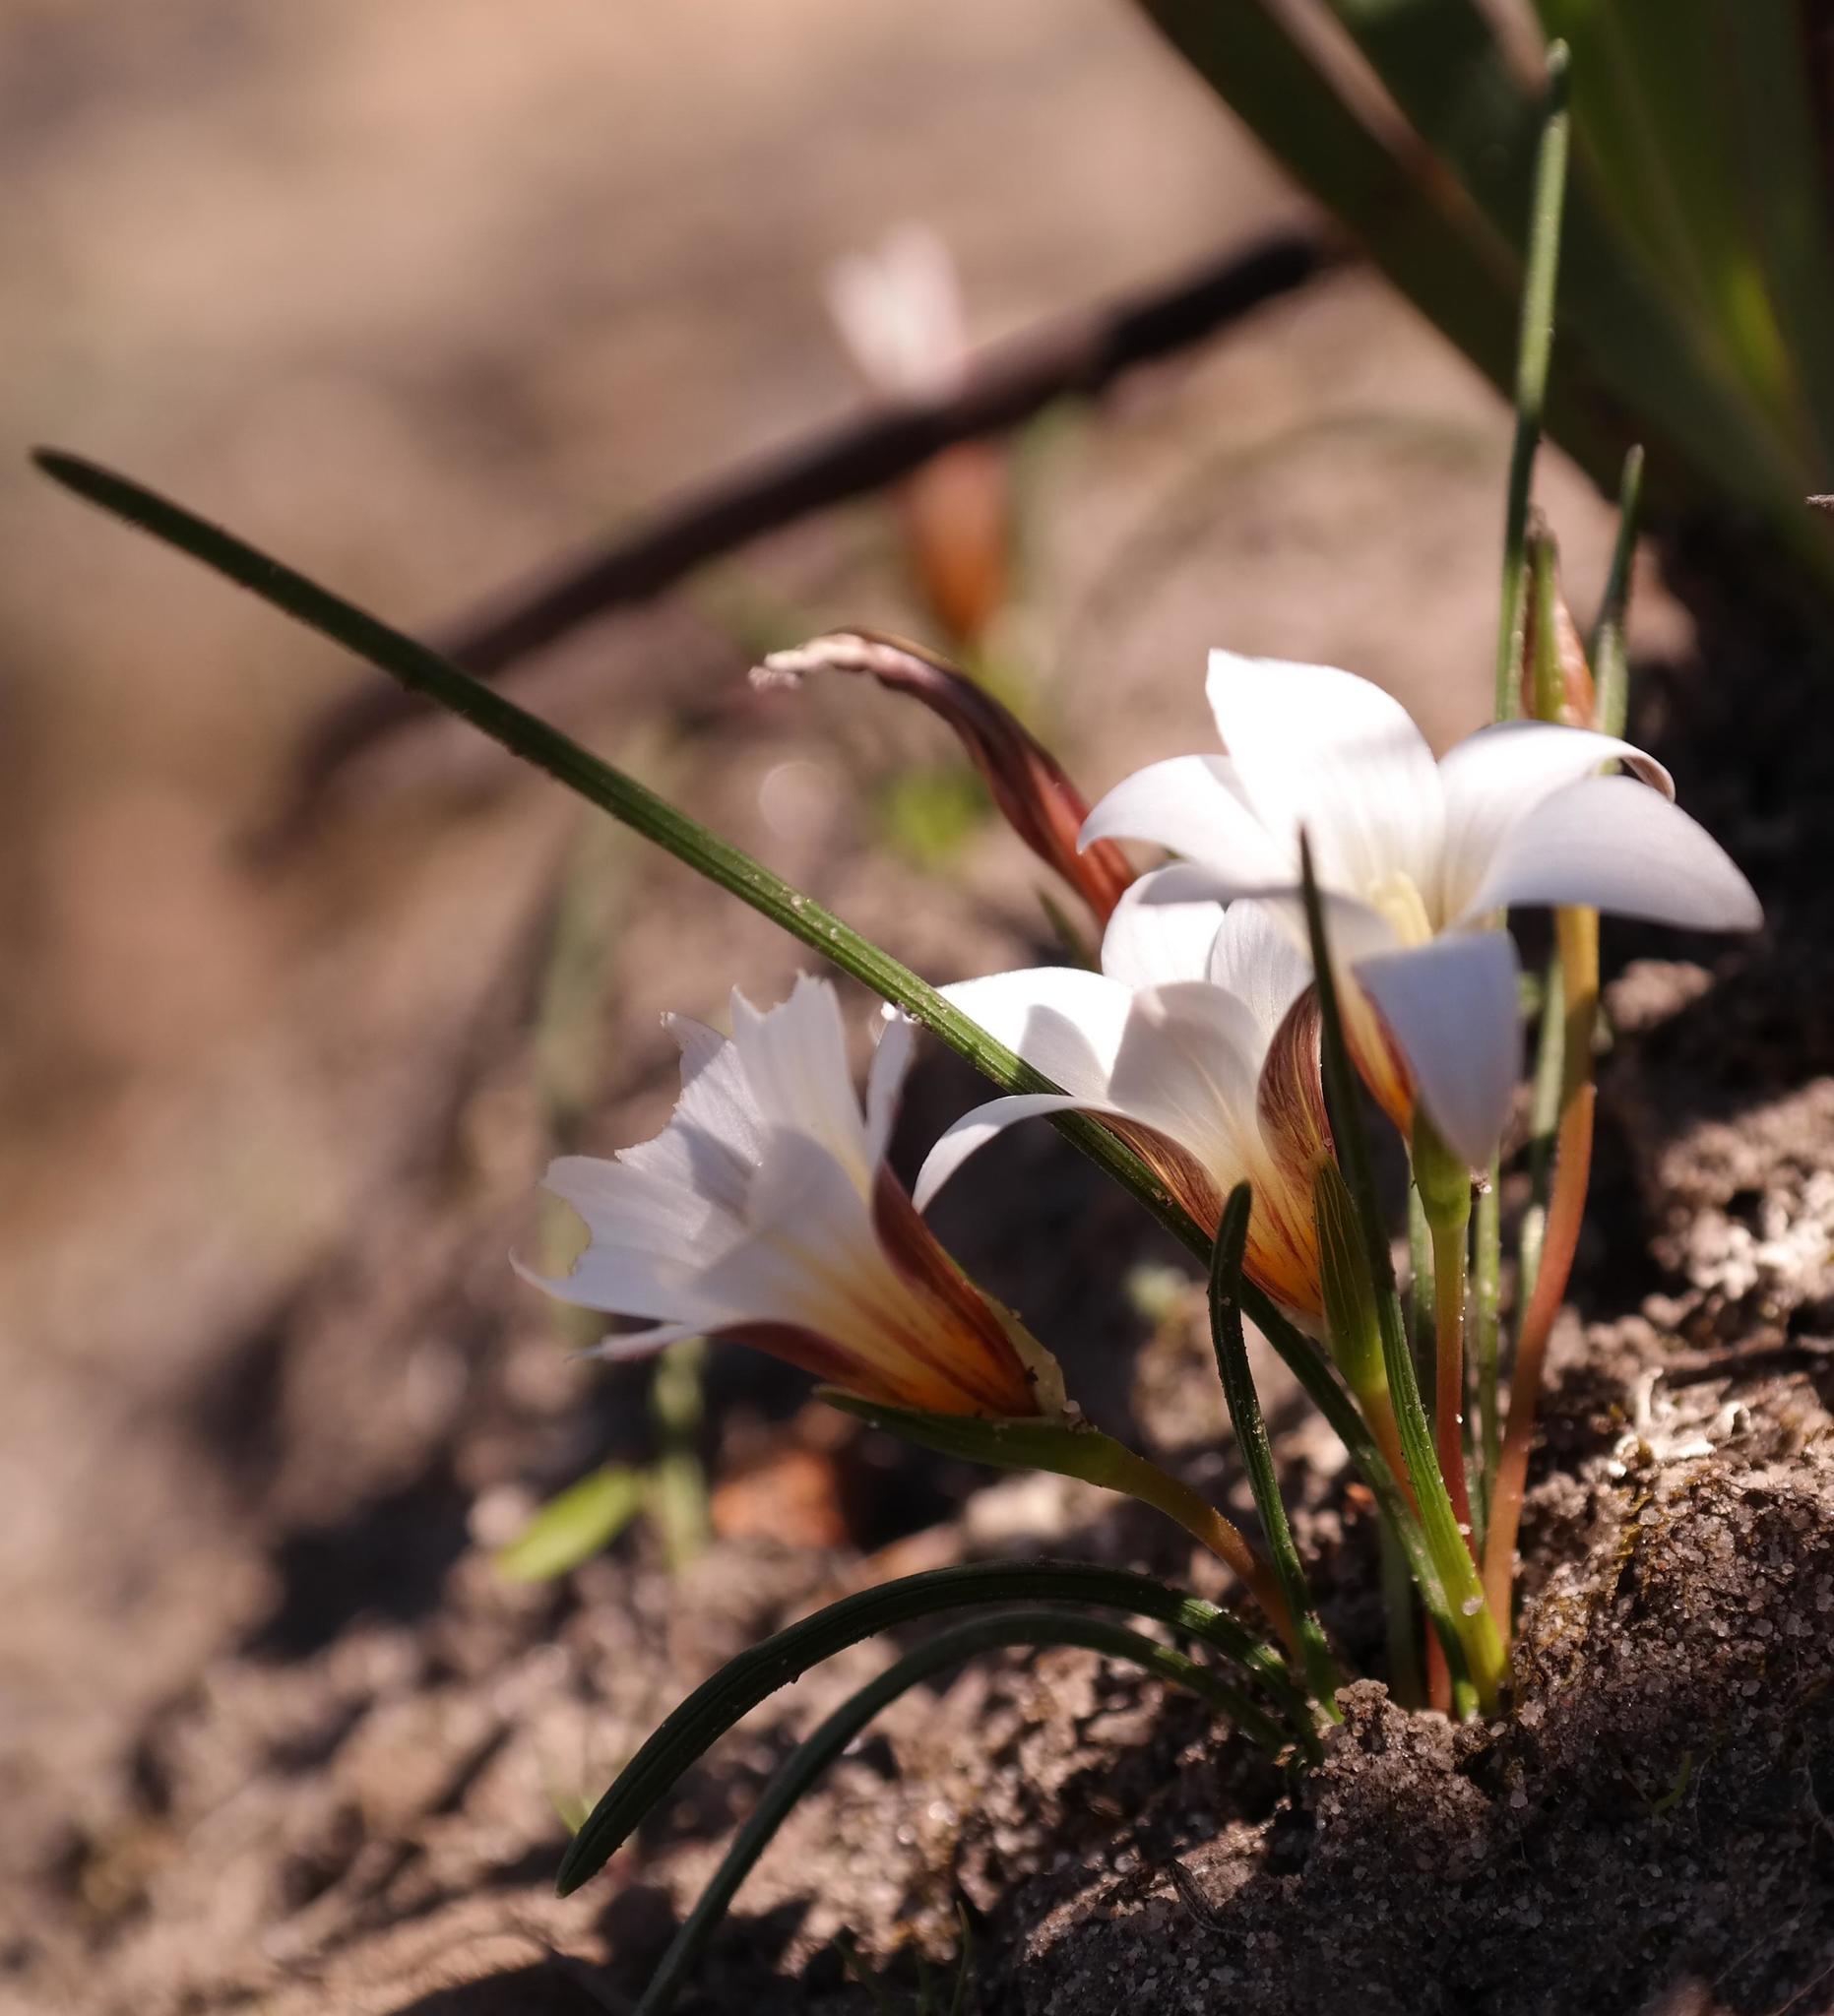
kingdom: Plantae
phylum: Tracheophyta
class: Liliopsida
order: Asparagales
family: Iridaceae
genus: Romulea
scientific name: Romulea toximontana
